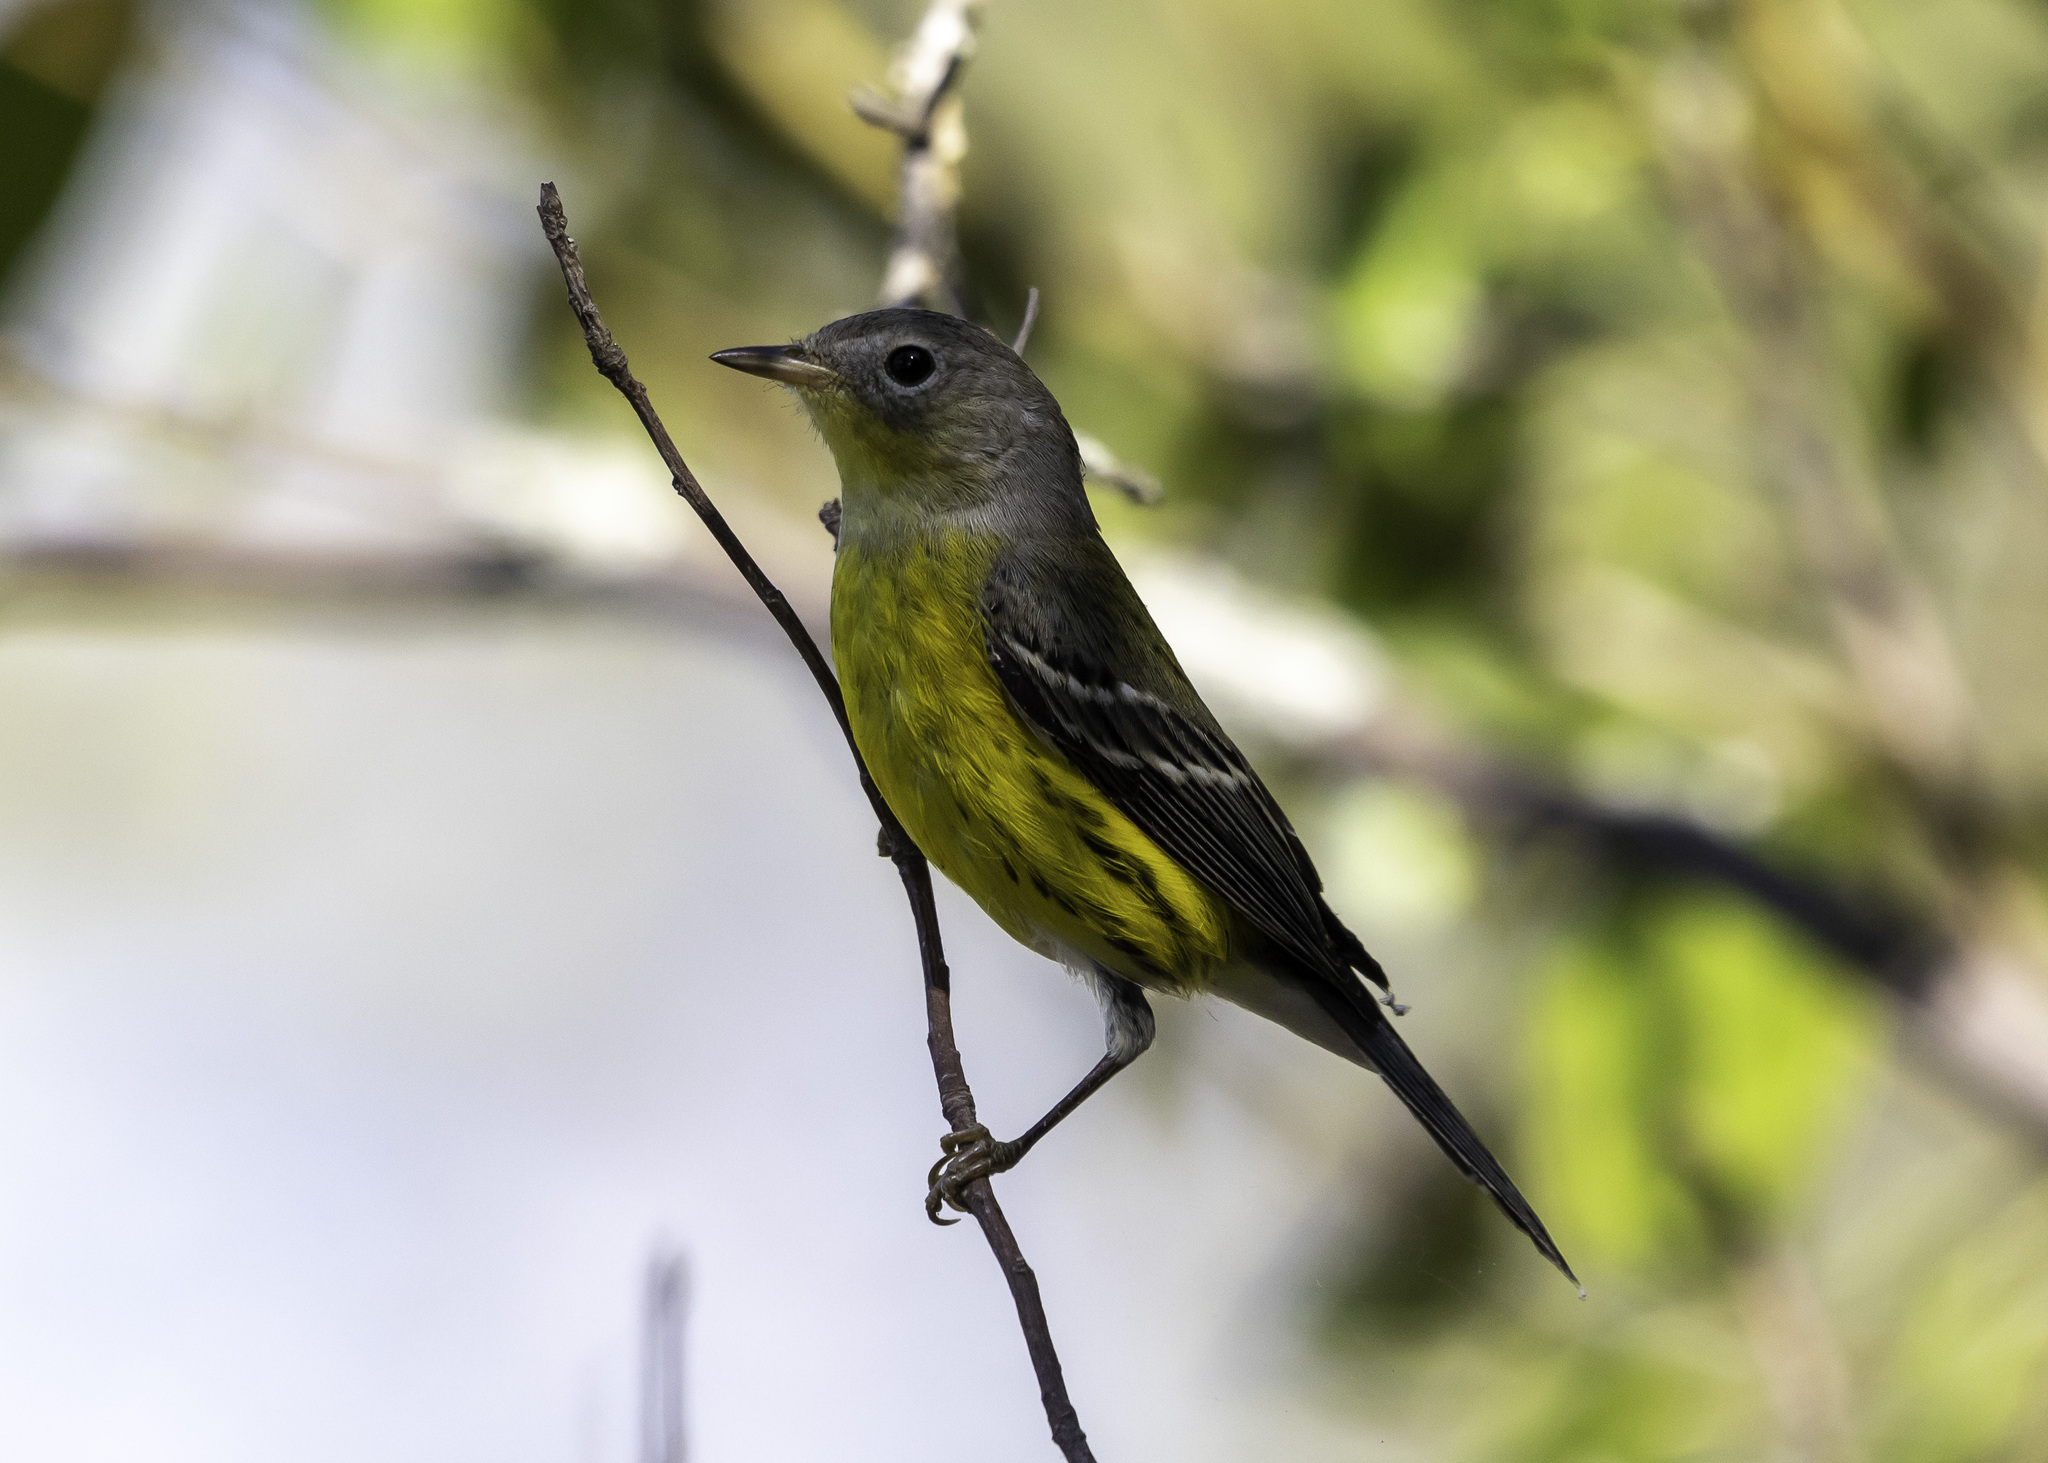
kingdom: Animalia
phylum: Chordata
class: Aves
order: Passeriformes
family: Parulidae
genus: Setophaga
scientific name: Setophaga magnolia
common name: Magnolia warbler
